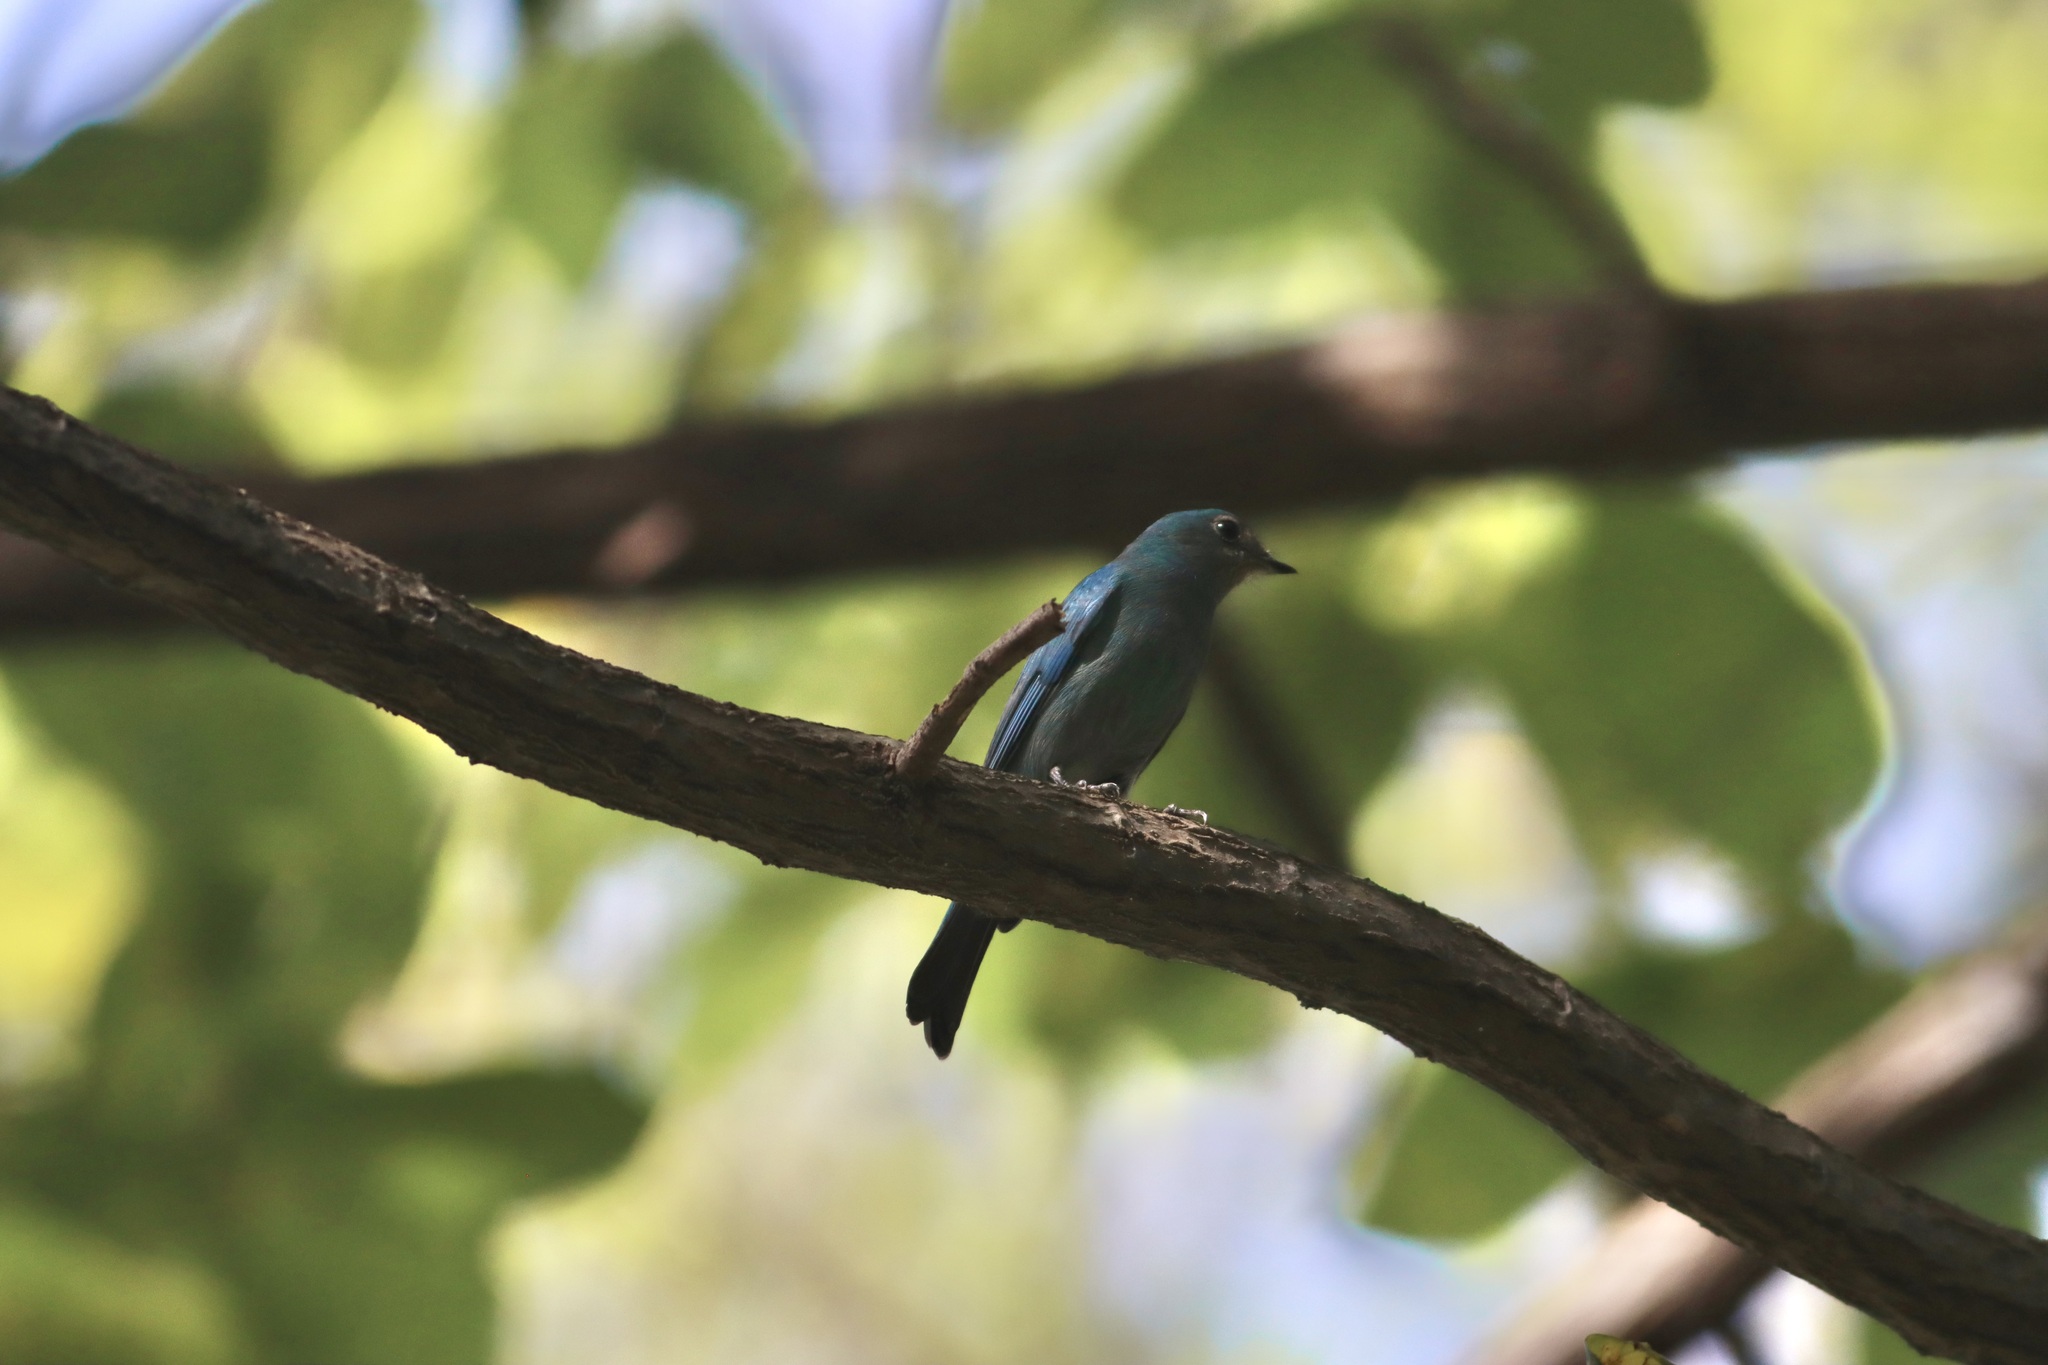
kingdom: Animalia
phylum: Chordata
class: Aves
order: Passeriformes
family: Muscicapidae
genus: Eumyias
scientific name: Eumyias thalassinus
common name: Verditer flycatcher
